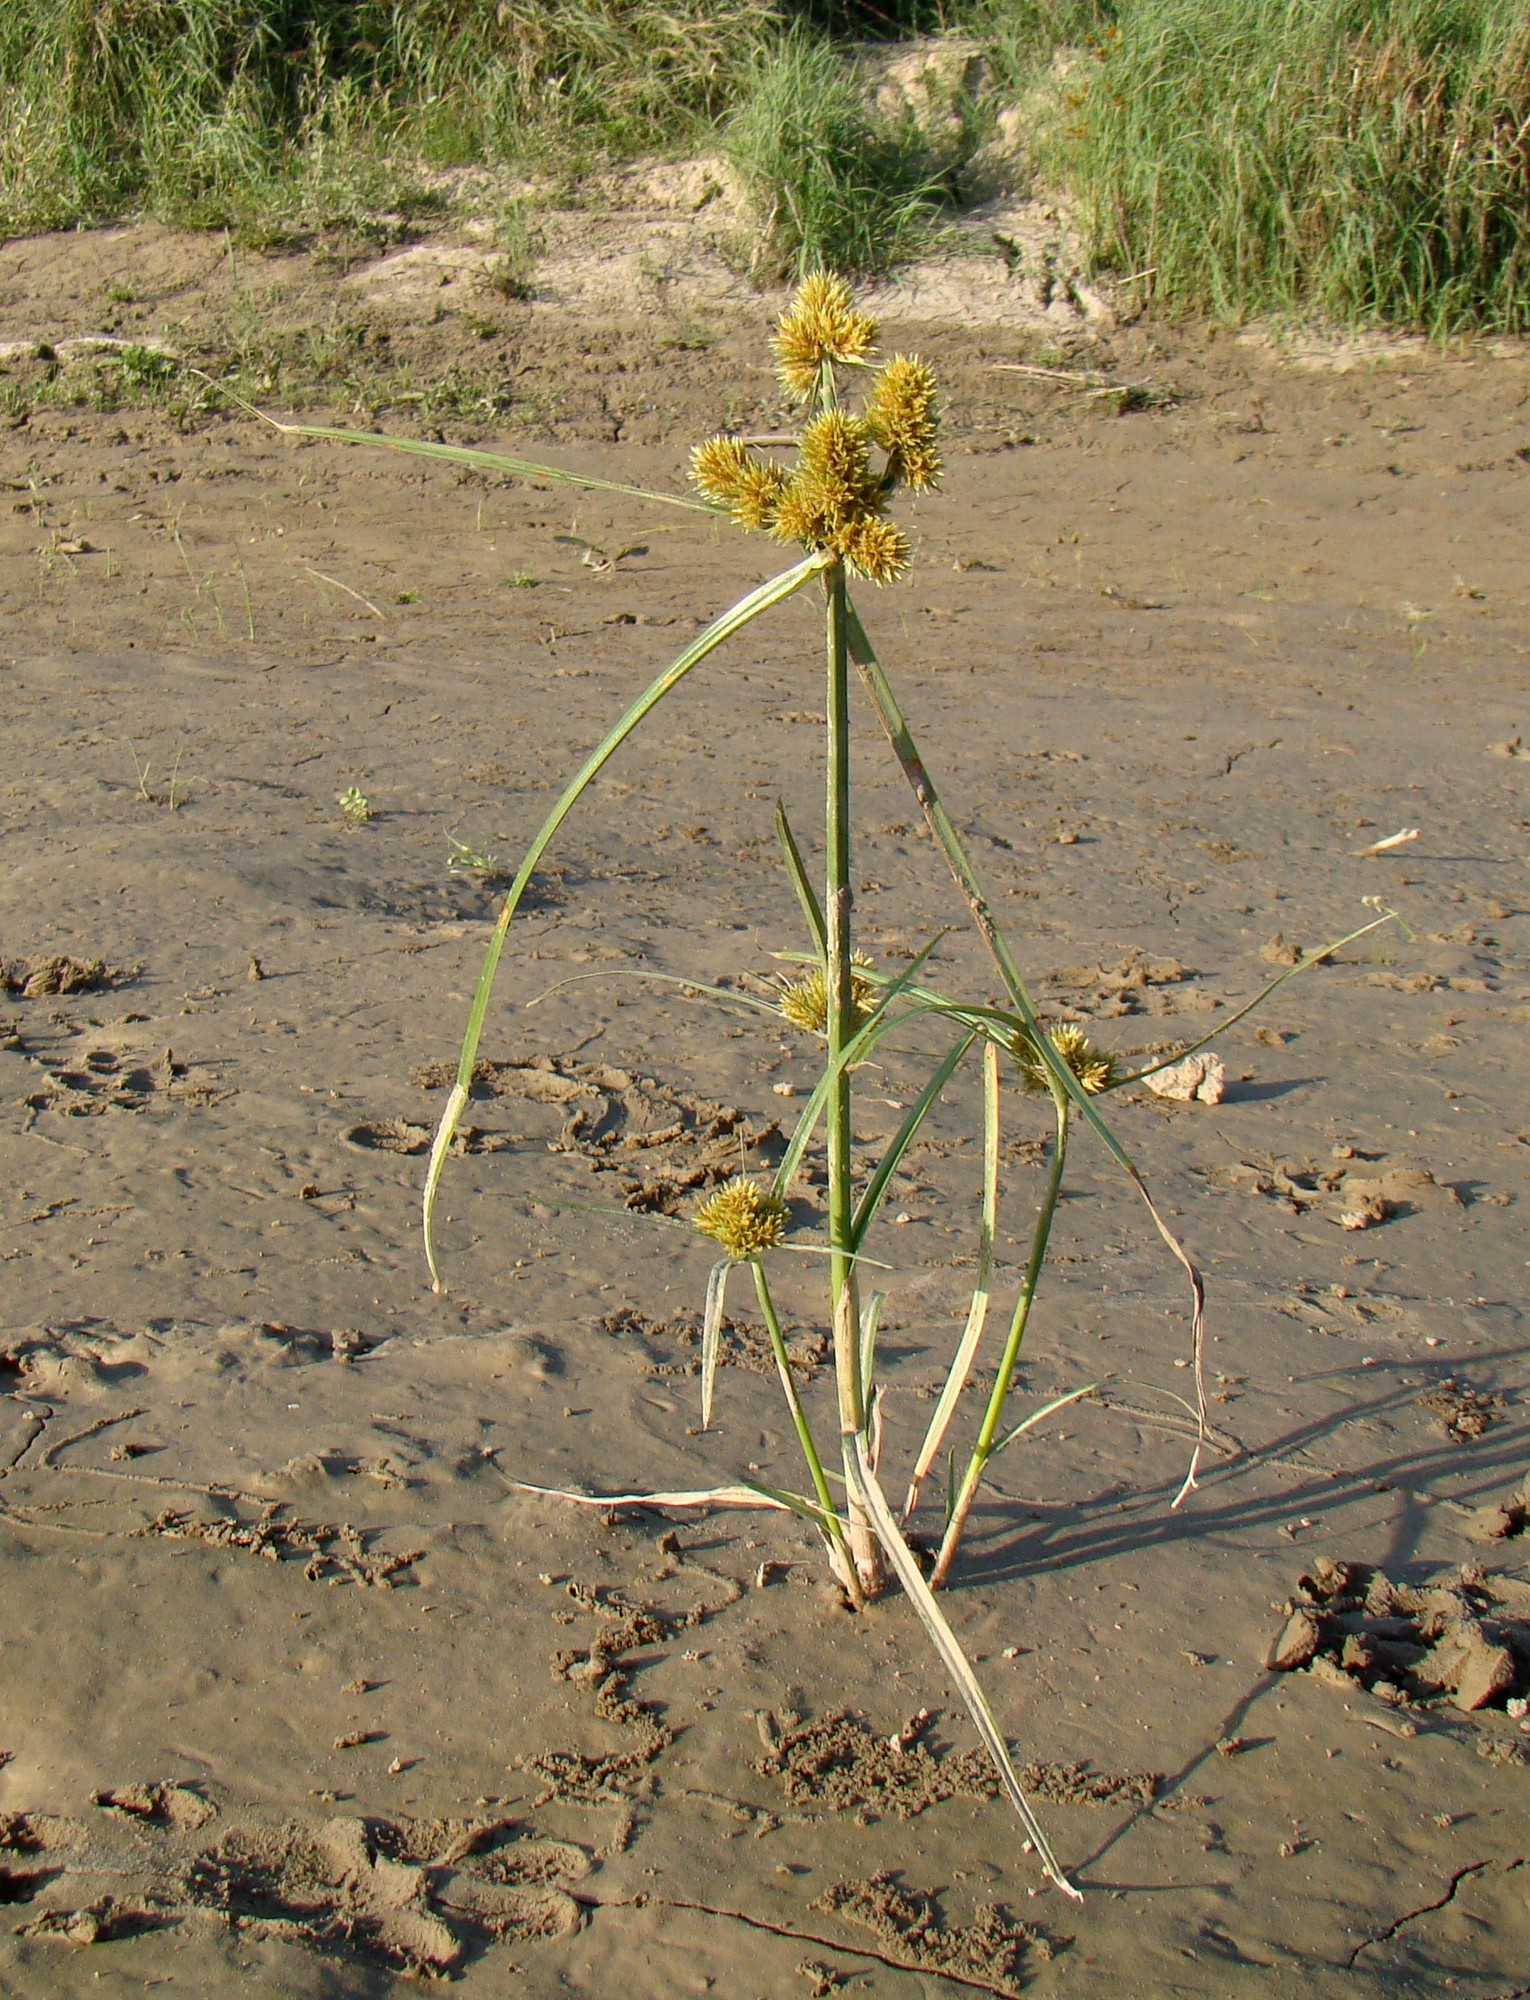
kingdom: Plantae
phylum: Tracheophyta
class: Liliopsida
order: Poales
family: Cyperaceae
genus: Cyperus
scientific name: Cyperus glomeratus
